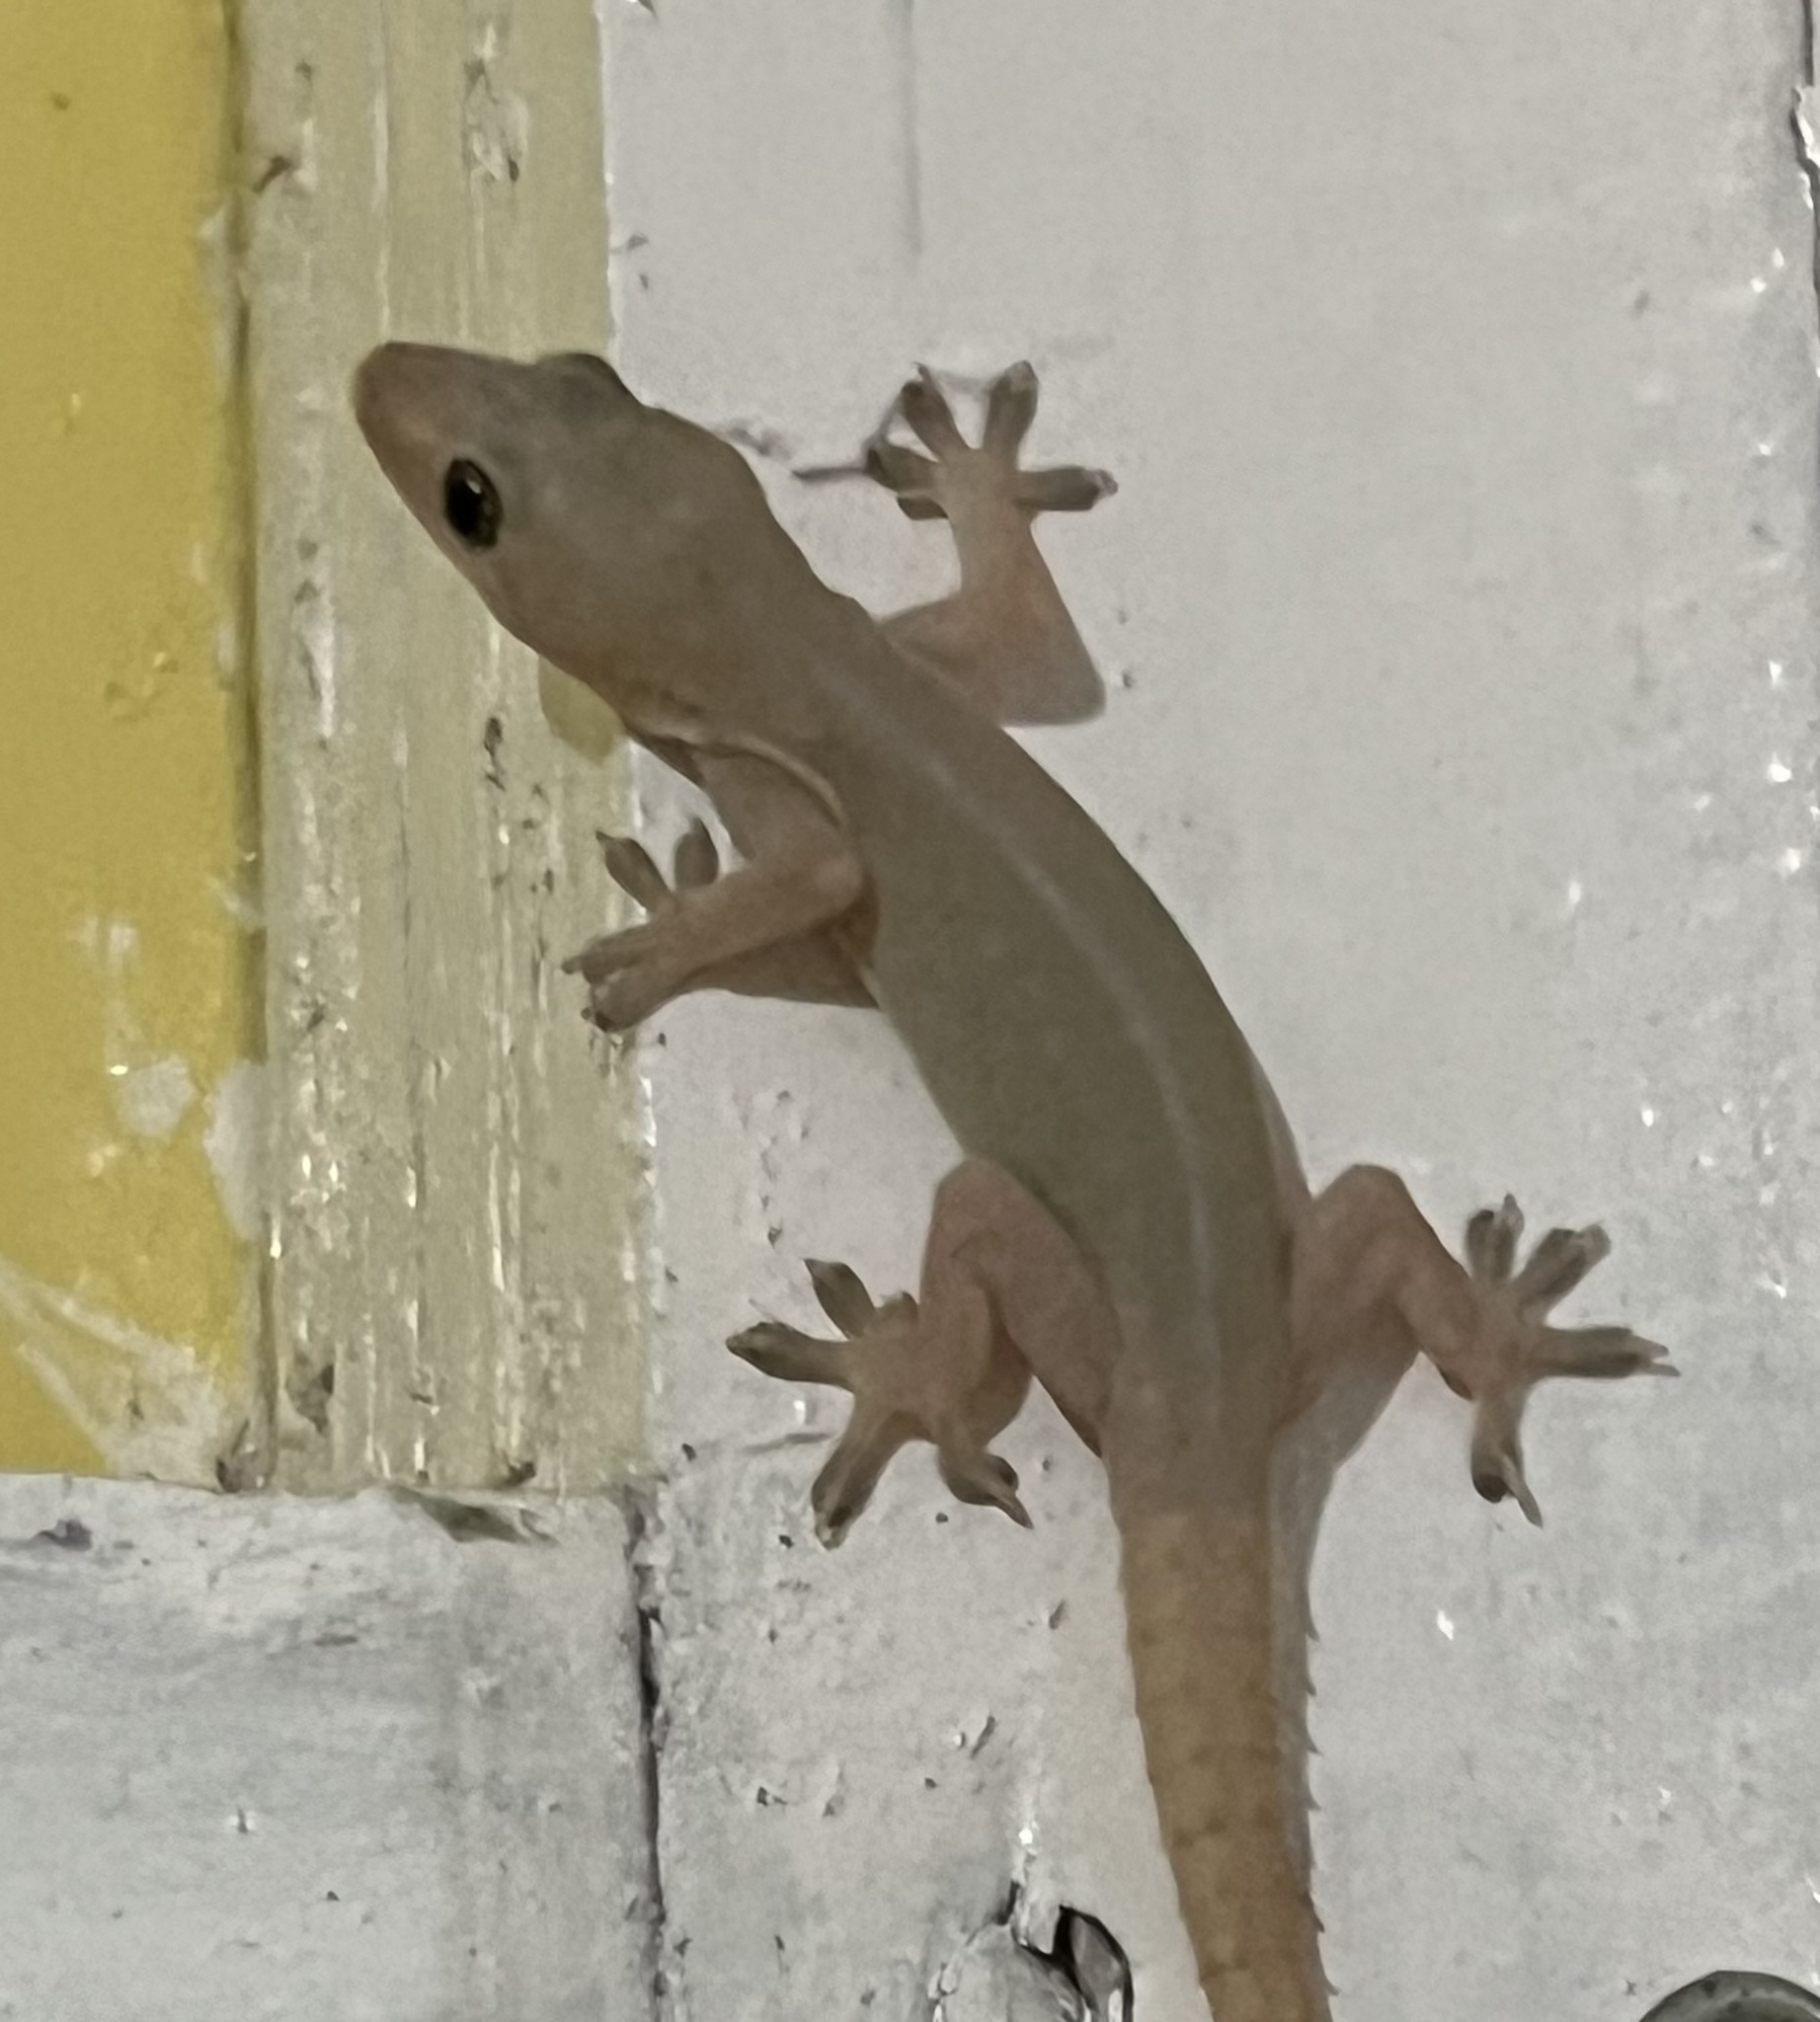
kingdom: Animalia
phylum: Chordata
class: Squamata
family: Gekkonidae
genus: Hemidactylus
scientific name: Hemidactylus frenatus
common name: Common house gecko
